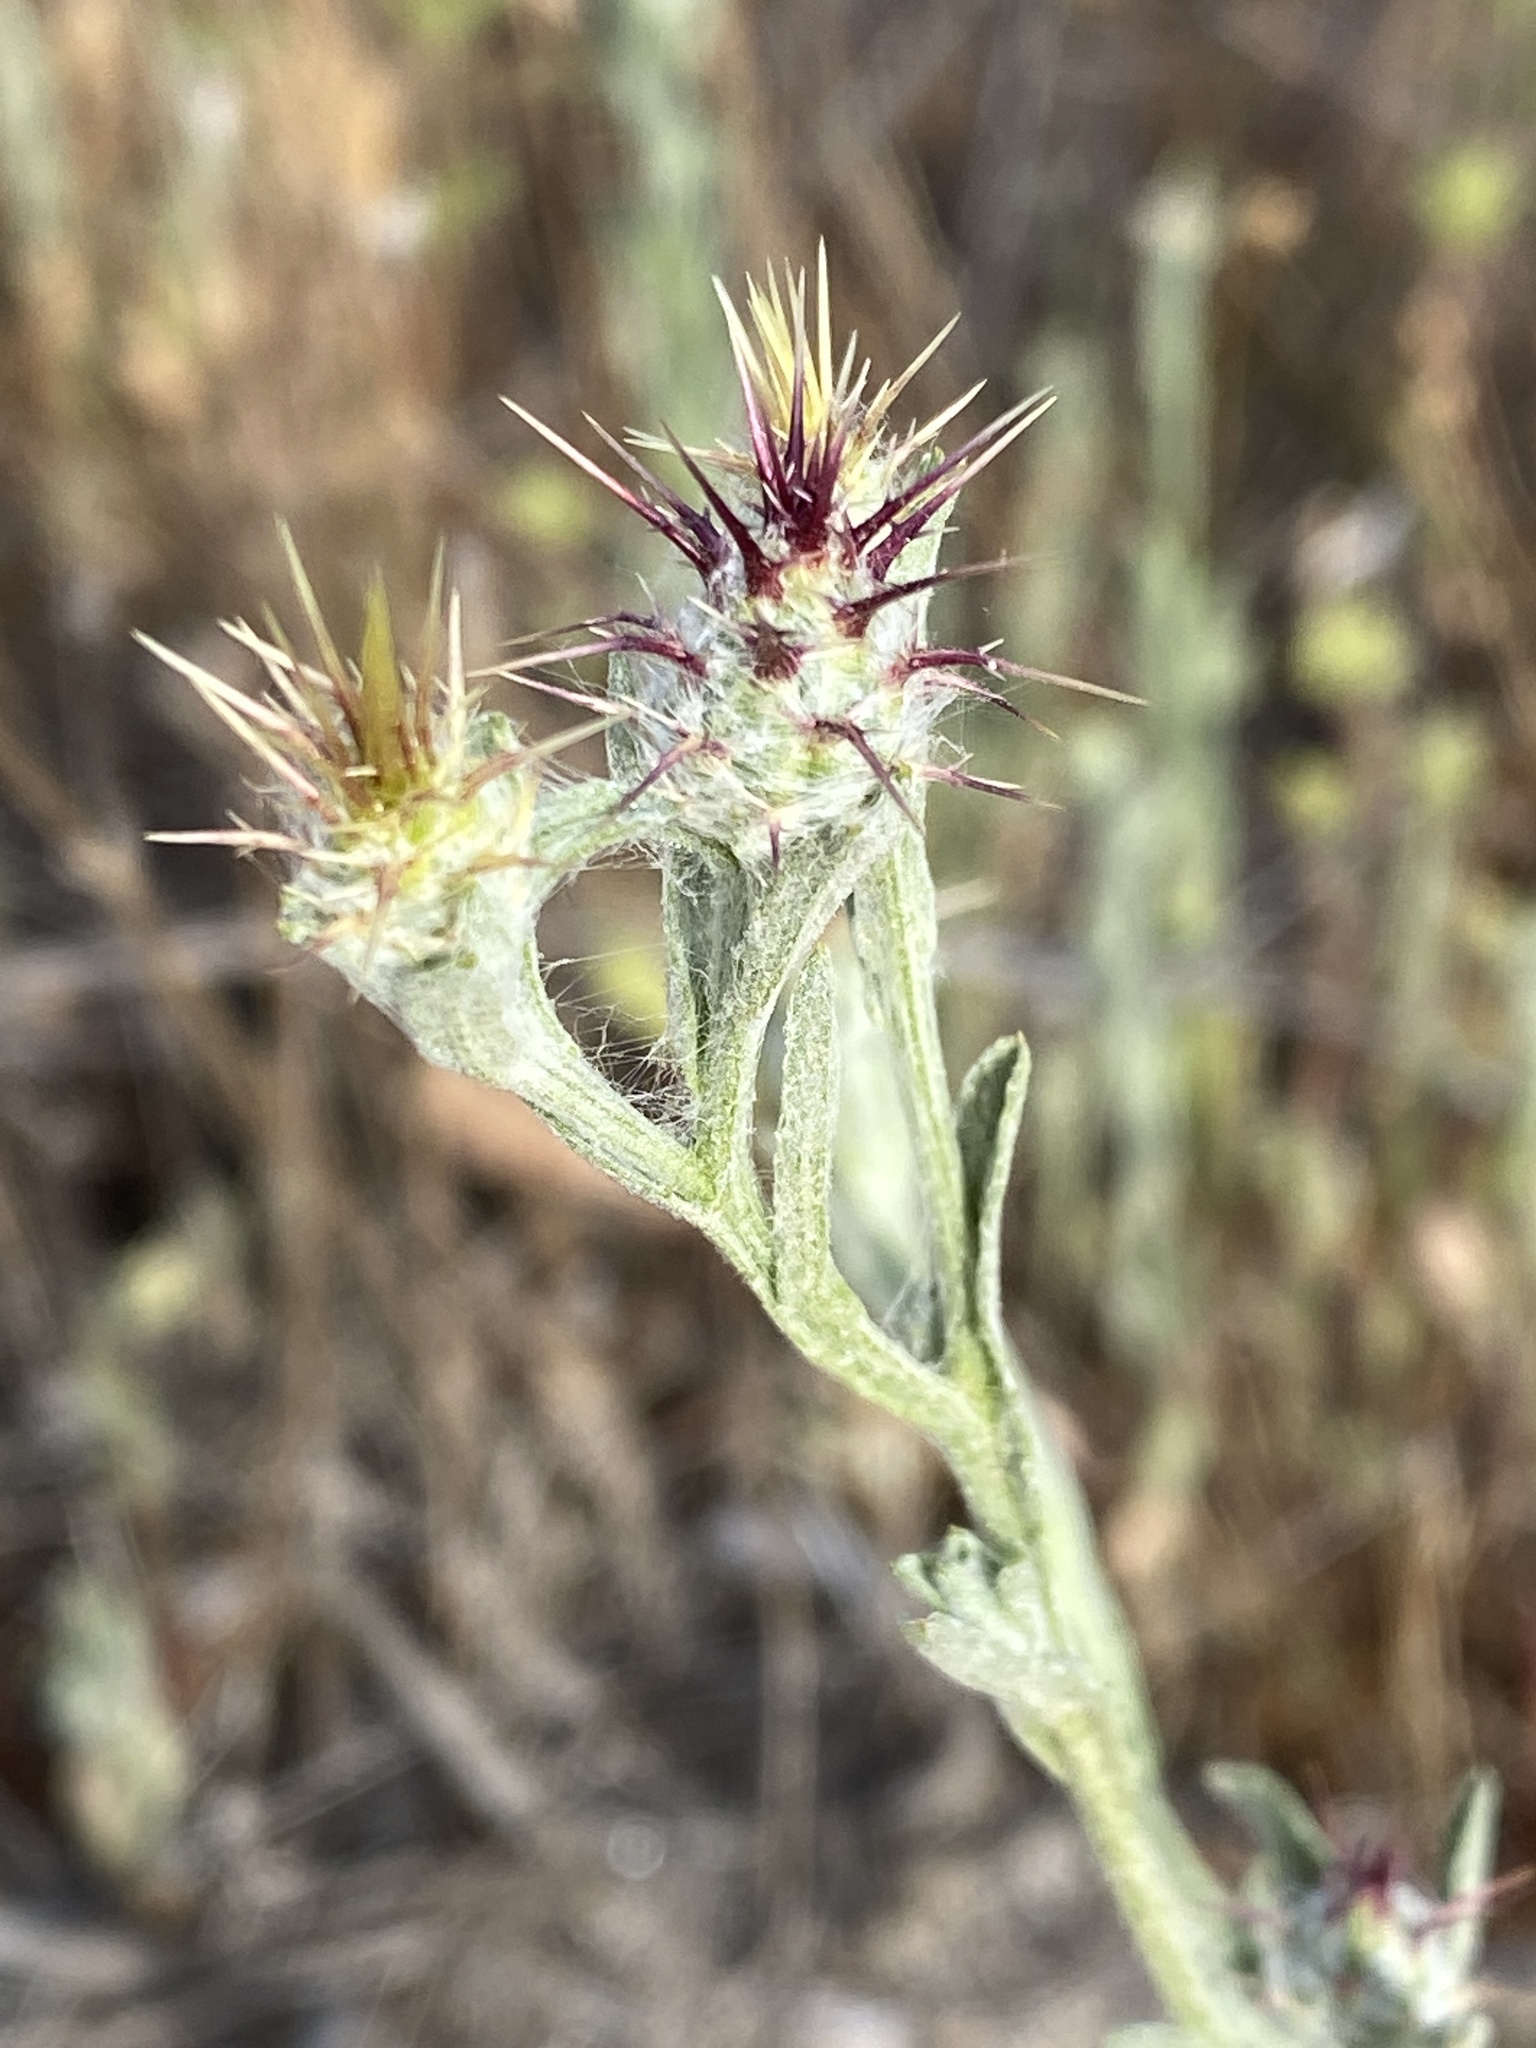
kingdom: Plantae
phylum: Tracheophyta
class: Magnoliopsida
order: Asterales
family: Asteraceae
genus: Centaurea
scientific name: Centaurea melitensis
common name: Maltese star-thistle
